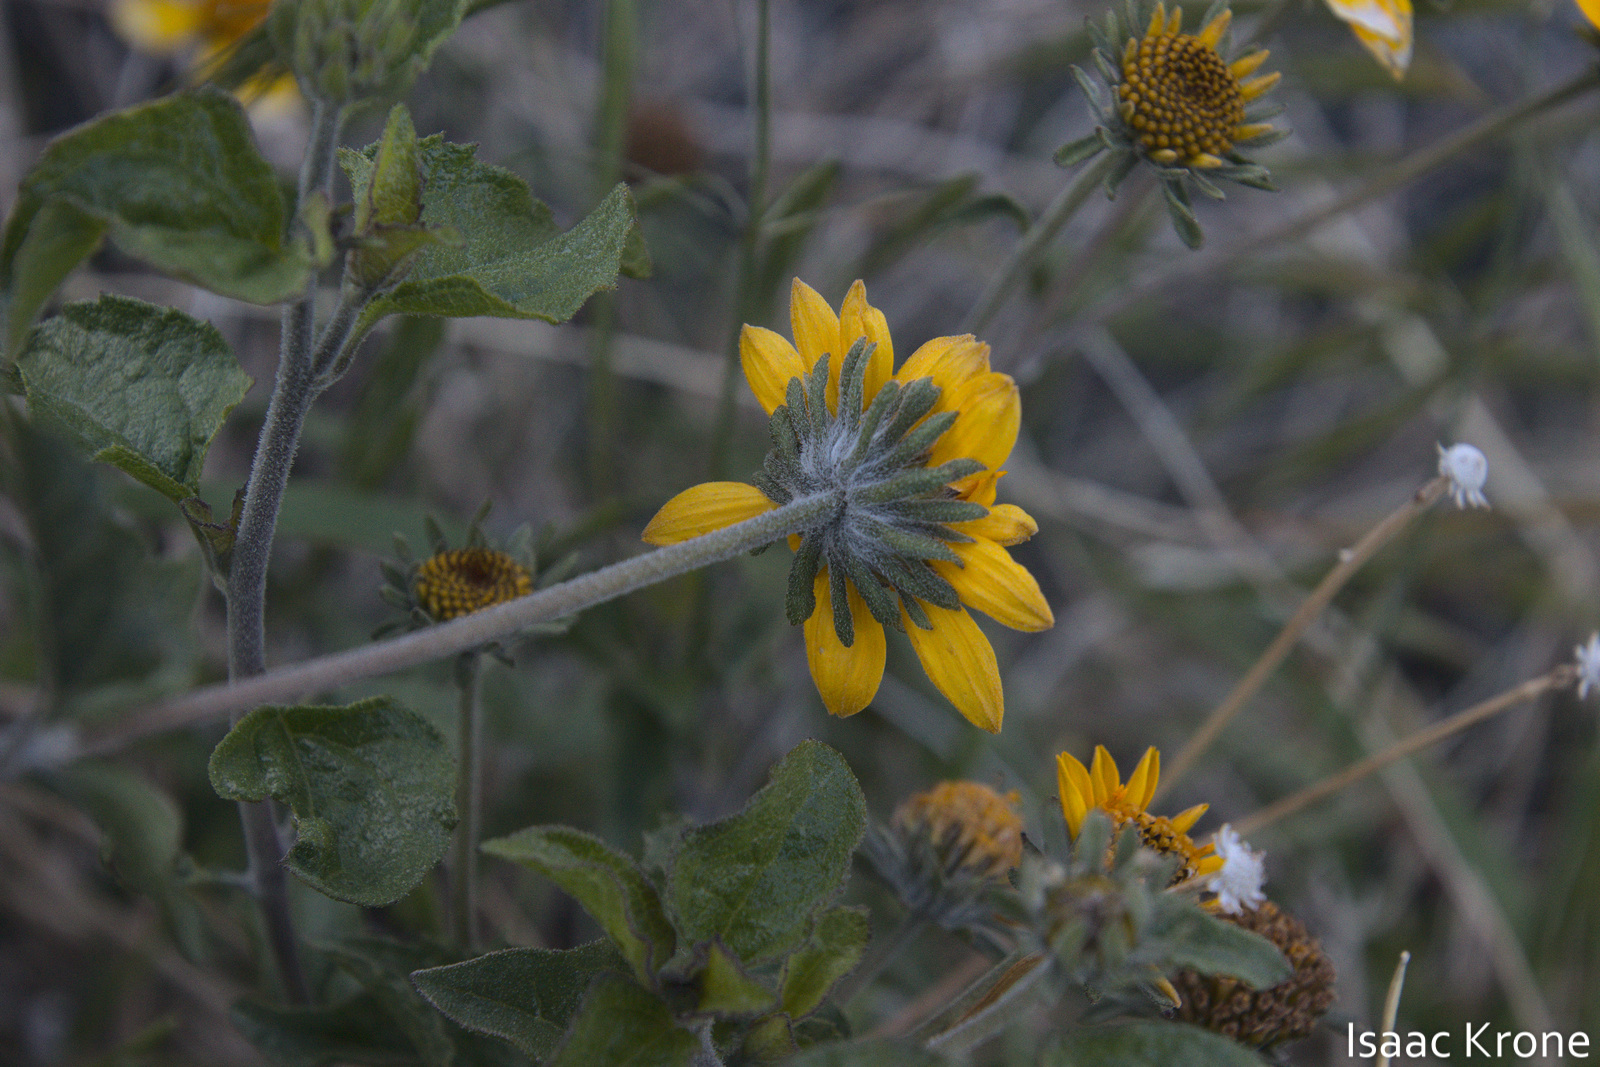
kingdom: Plantae
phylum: Tracheophyta
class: Magnoliopsida
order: Asterales
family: Asteraceae
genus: Bahiopsis
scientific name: Bahiopsis parishii
